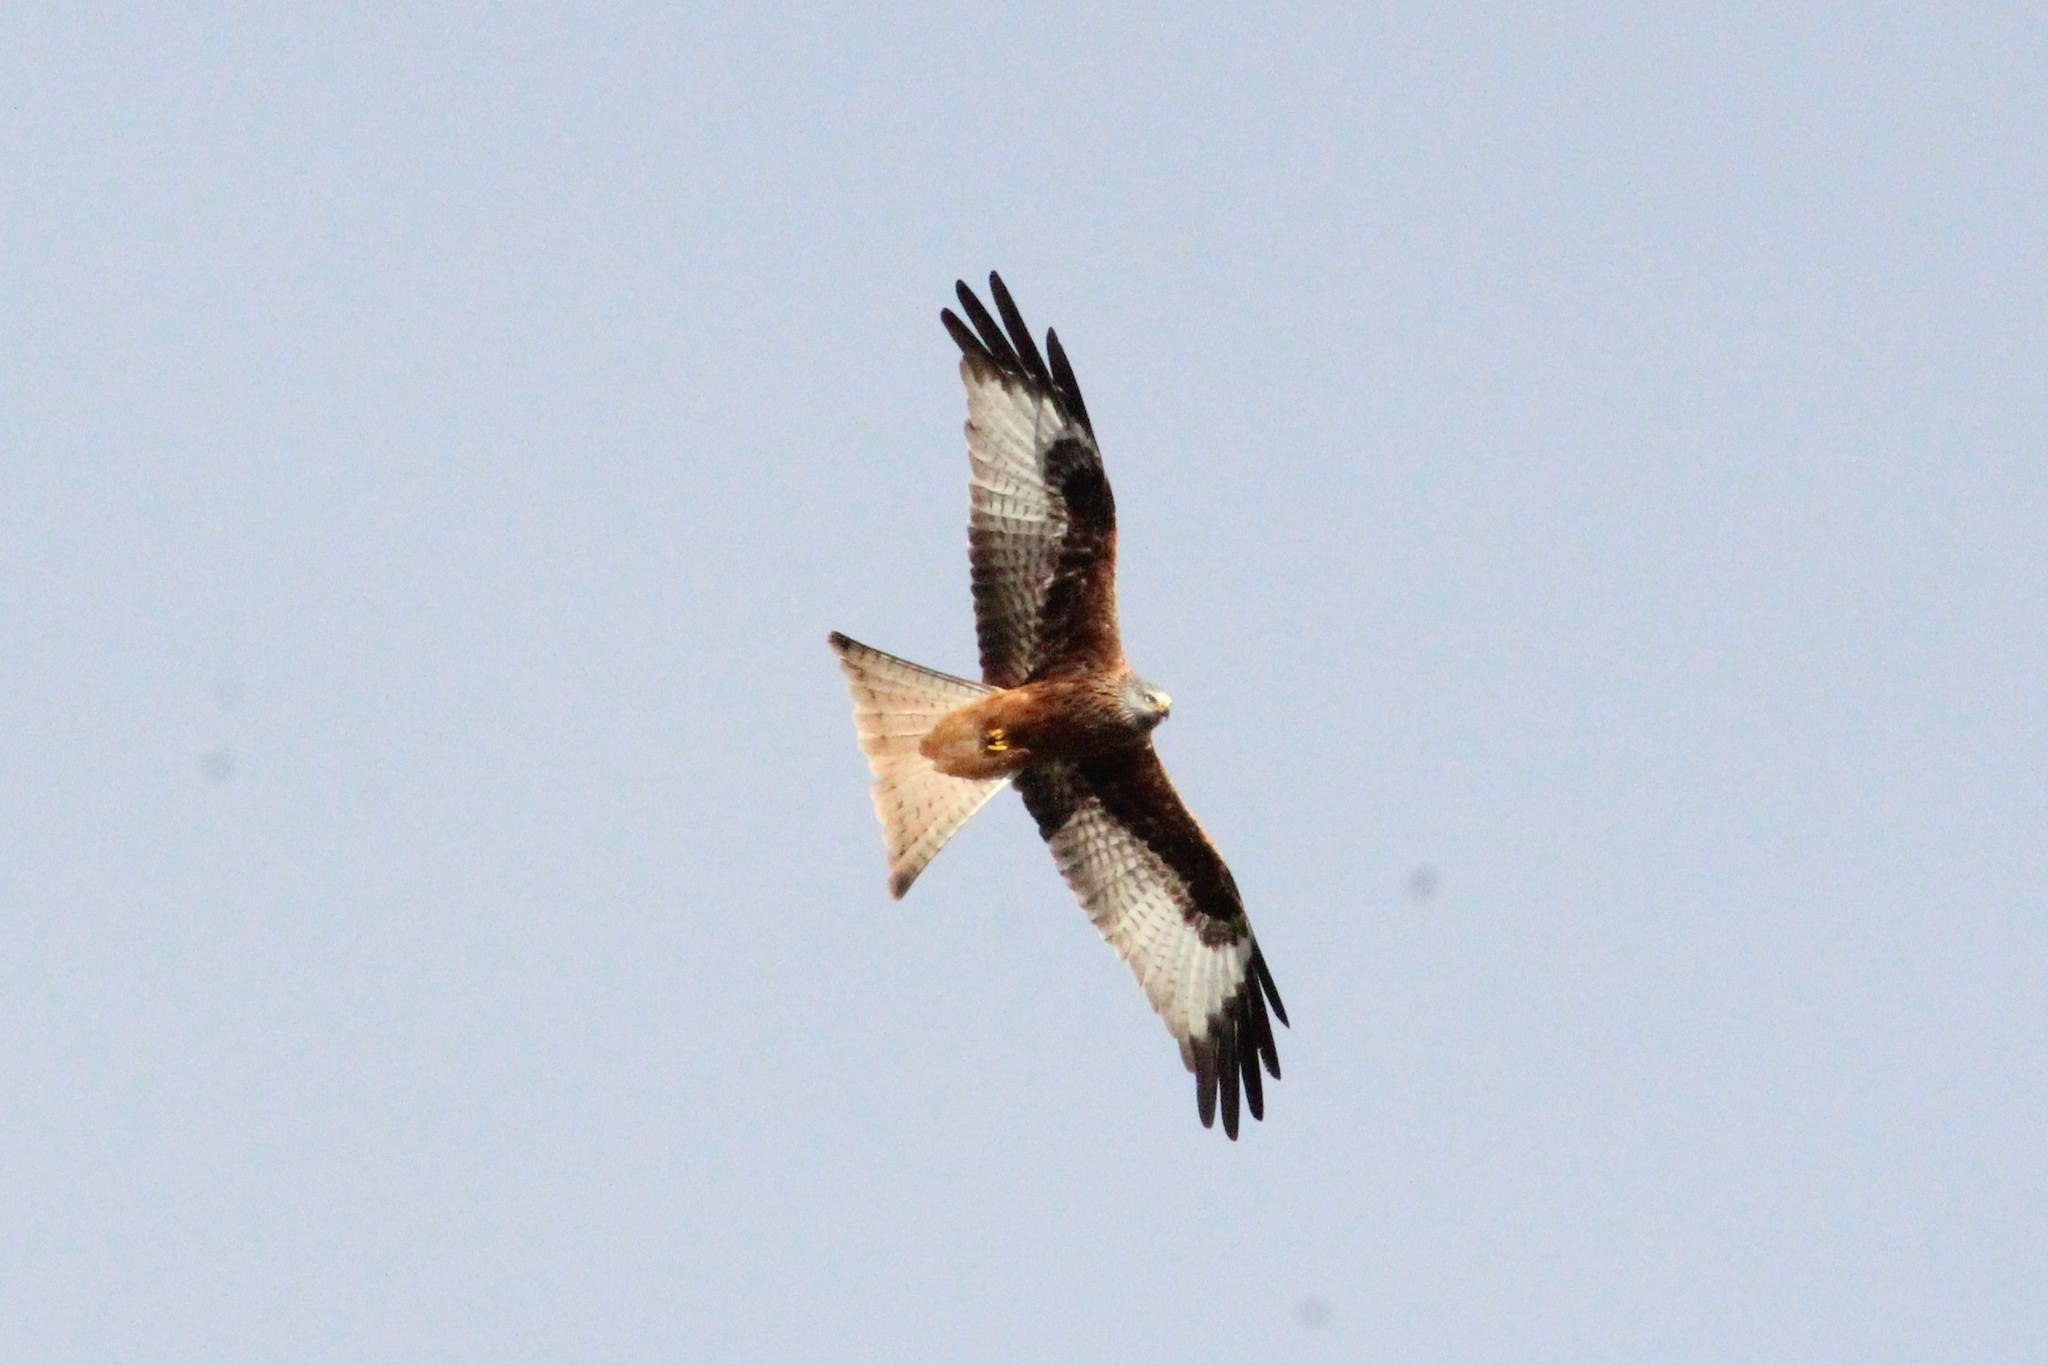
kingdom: Animalia
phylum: Chordata
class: Aves
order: Accipitriformes
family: Accipitridae
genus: Milvus
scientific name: Milvus milvus
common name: Red kite
